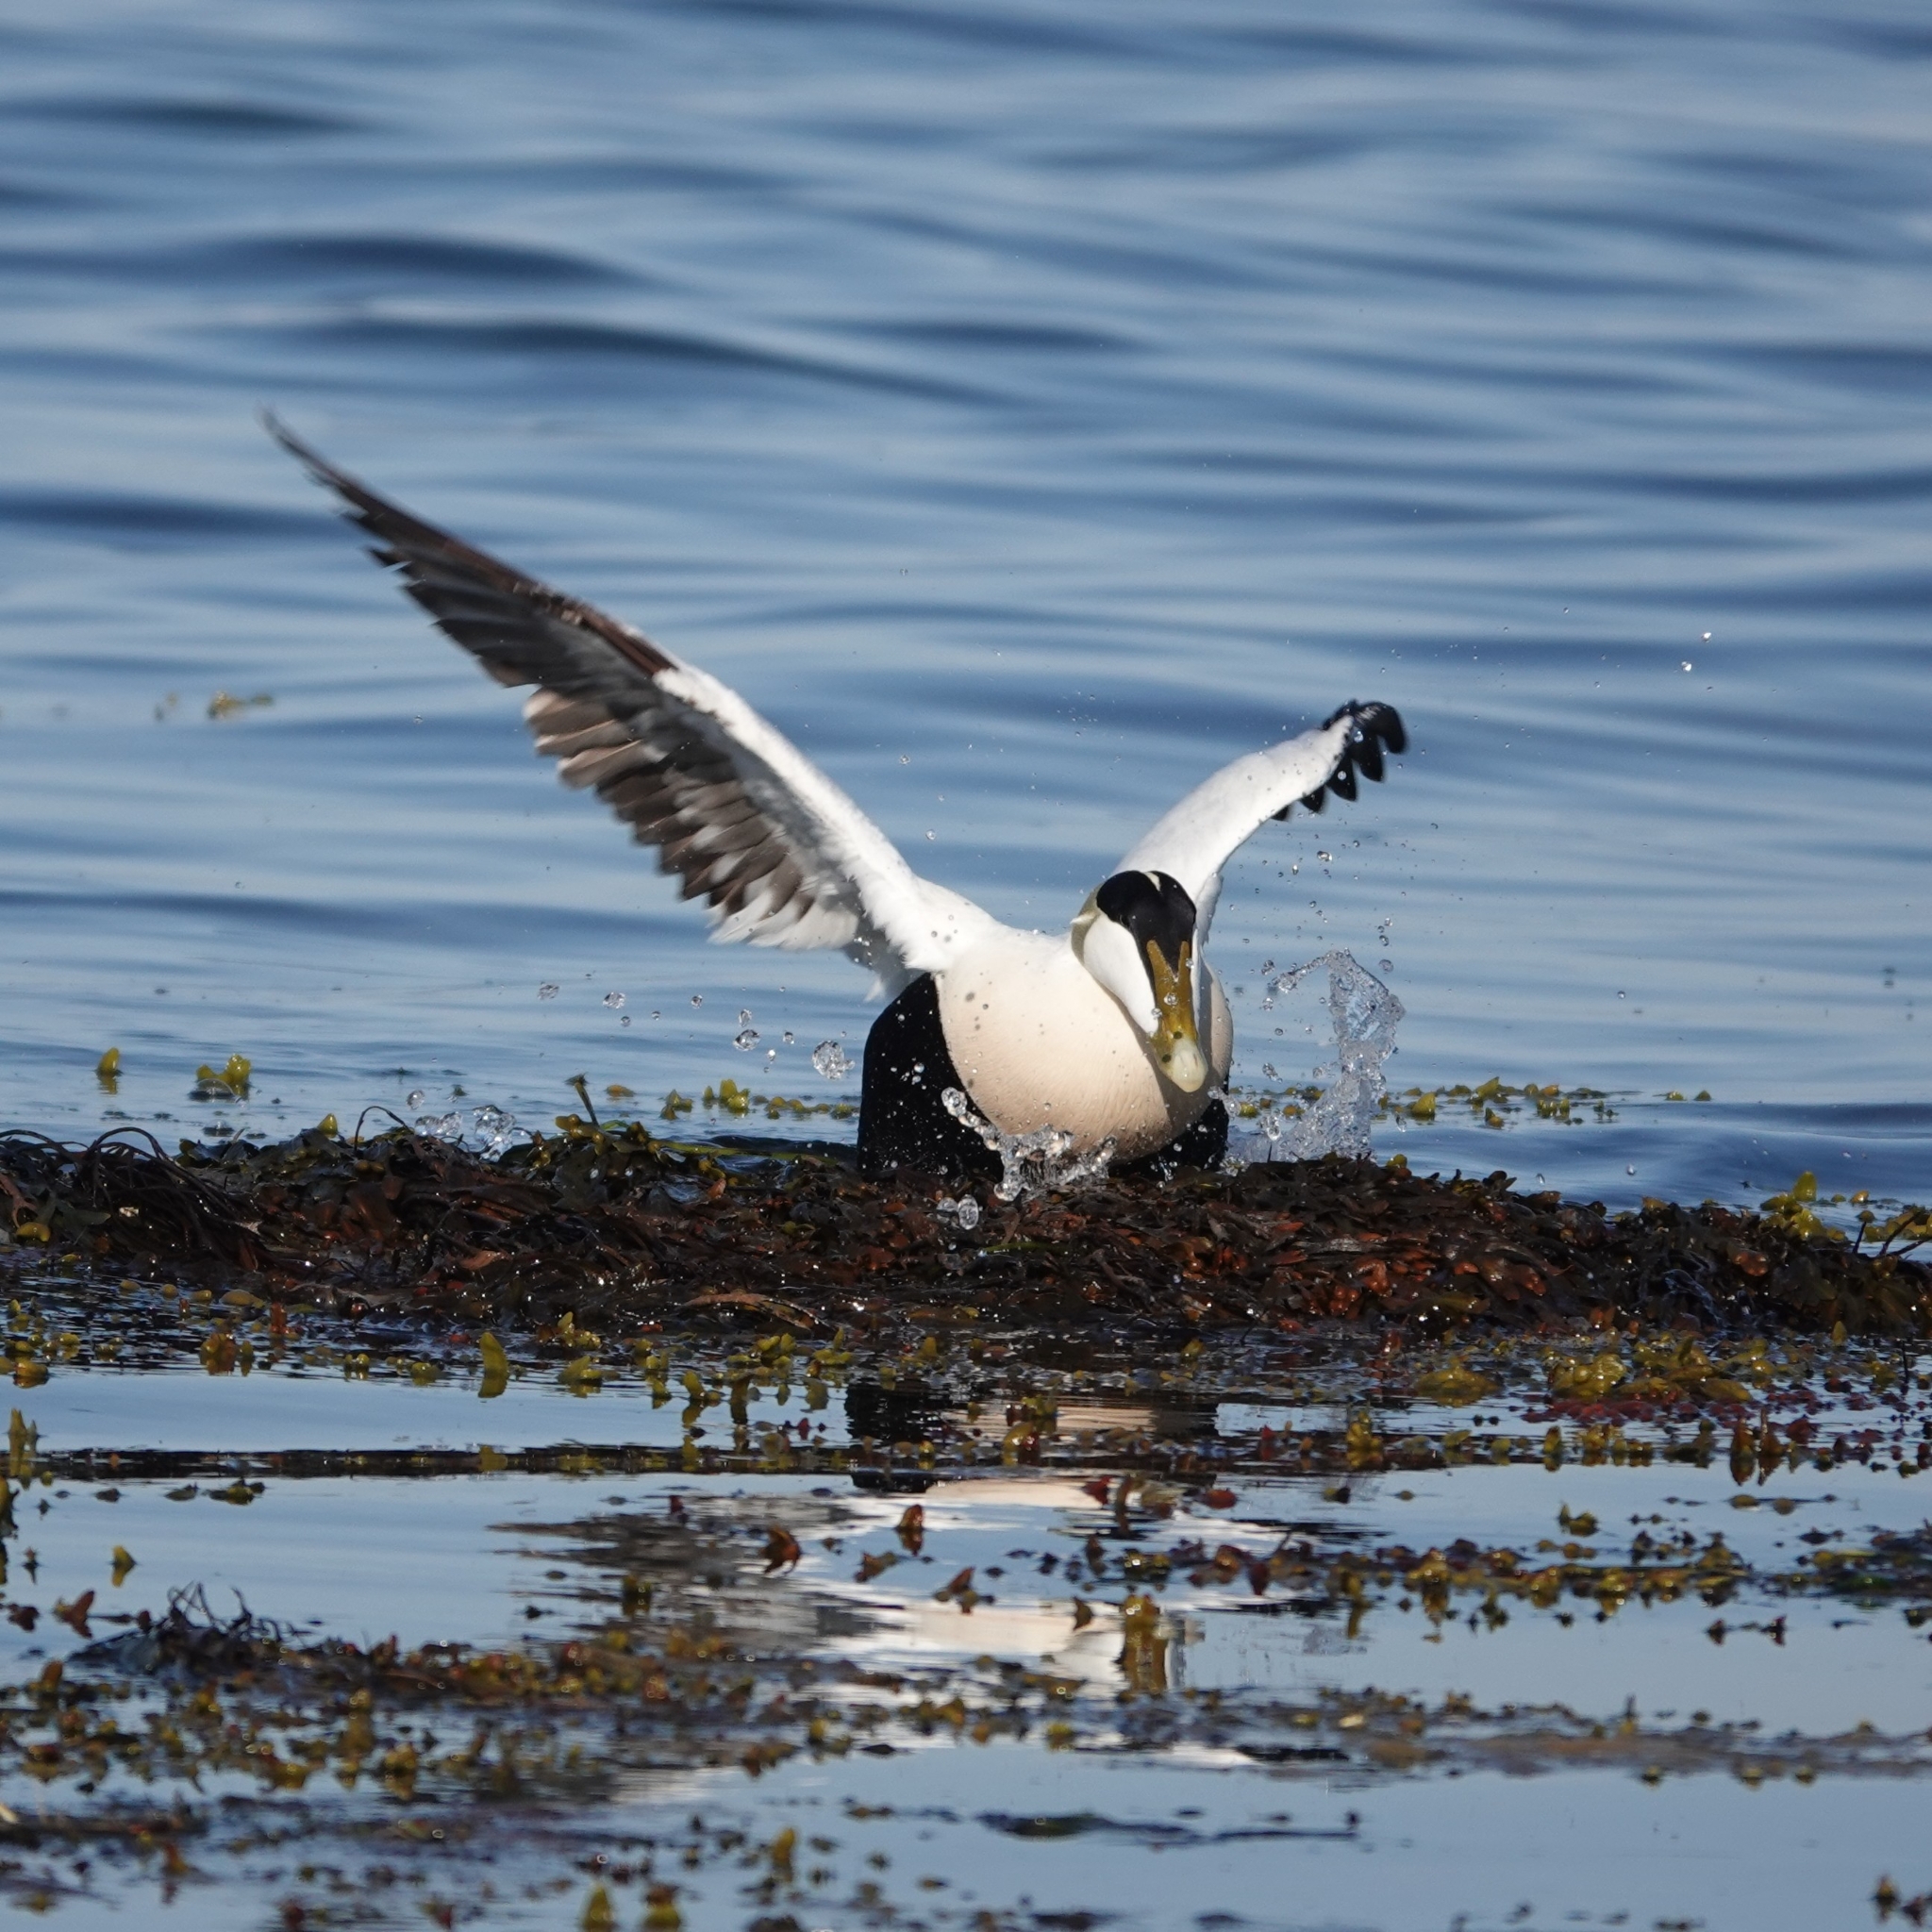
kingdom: Animalia
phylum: Chordata
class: Aves
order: Anseriformes
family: Anatidae
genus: Somateria
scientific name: Somateria mollissima
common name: Common eider
